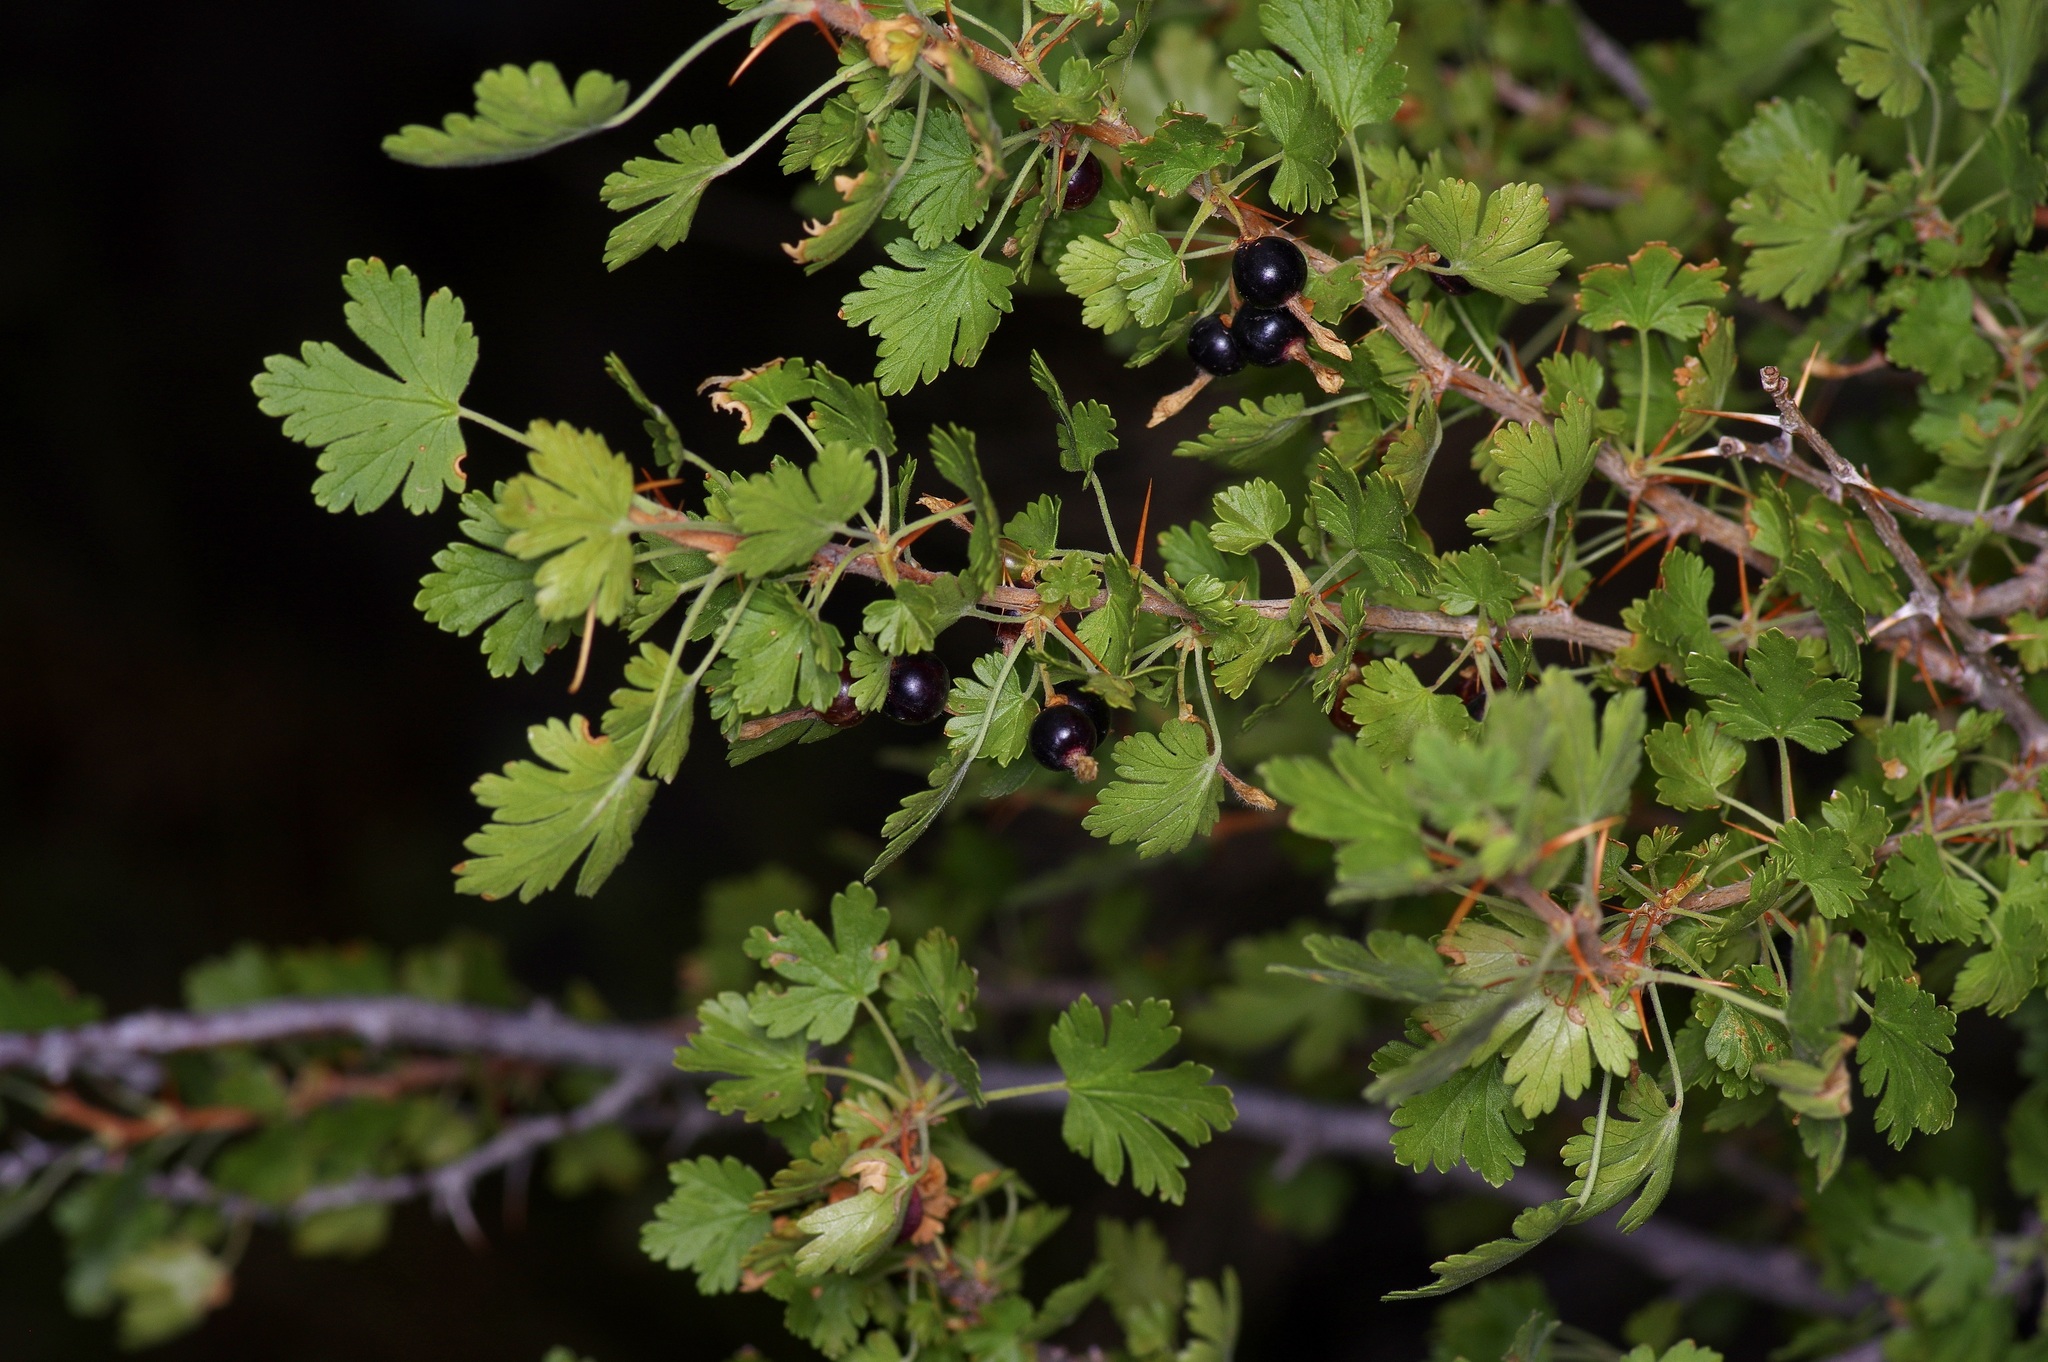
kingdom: Plantae
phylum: Tracheophyta
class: Magnoliopsida
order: Saxifragales
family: Grossulariaceae
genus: Ribes
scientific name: Ribes leptanthum
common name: Trumpet gooseberry
